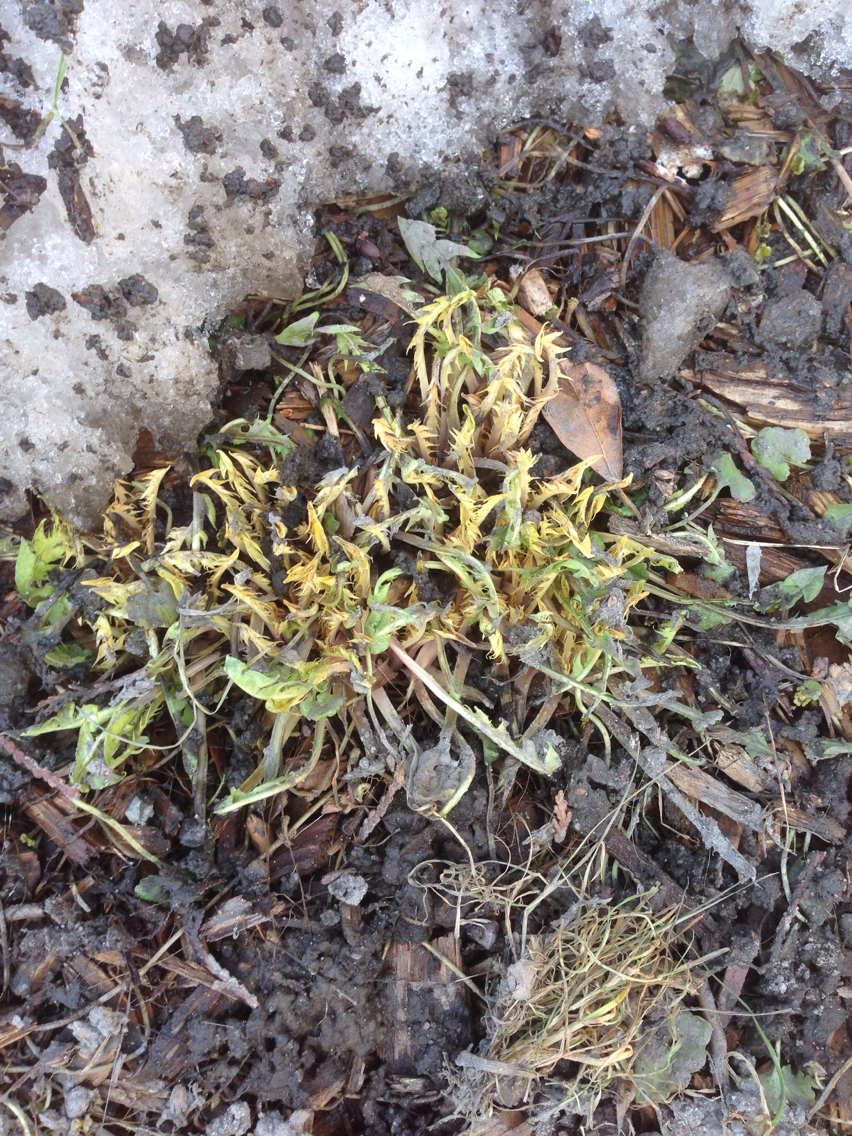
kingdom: Plantae
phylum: Tracheophyta
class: Magnoliopsida
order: Asterales
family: Asteraceae
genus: Taraxacum
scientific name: Taraxacum officinale
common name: Common dandelion
